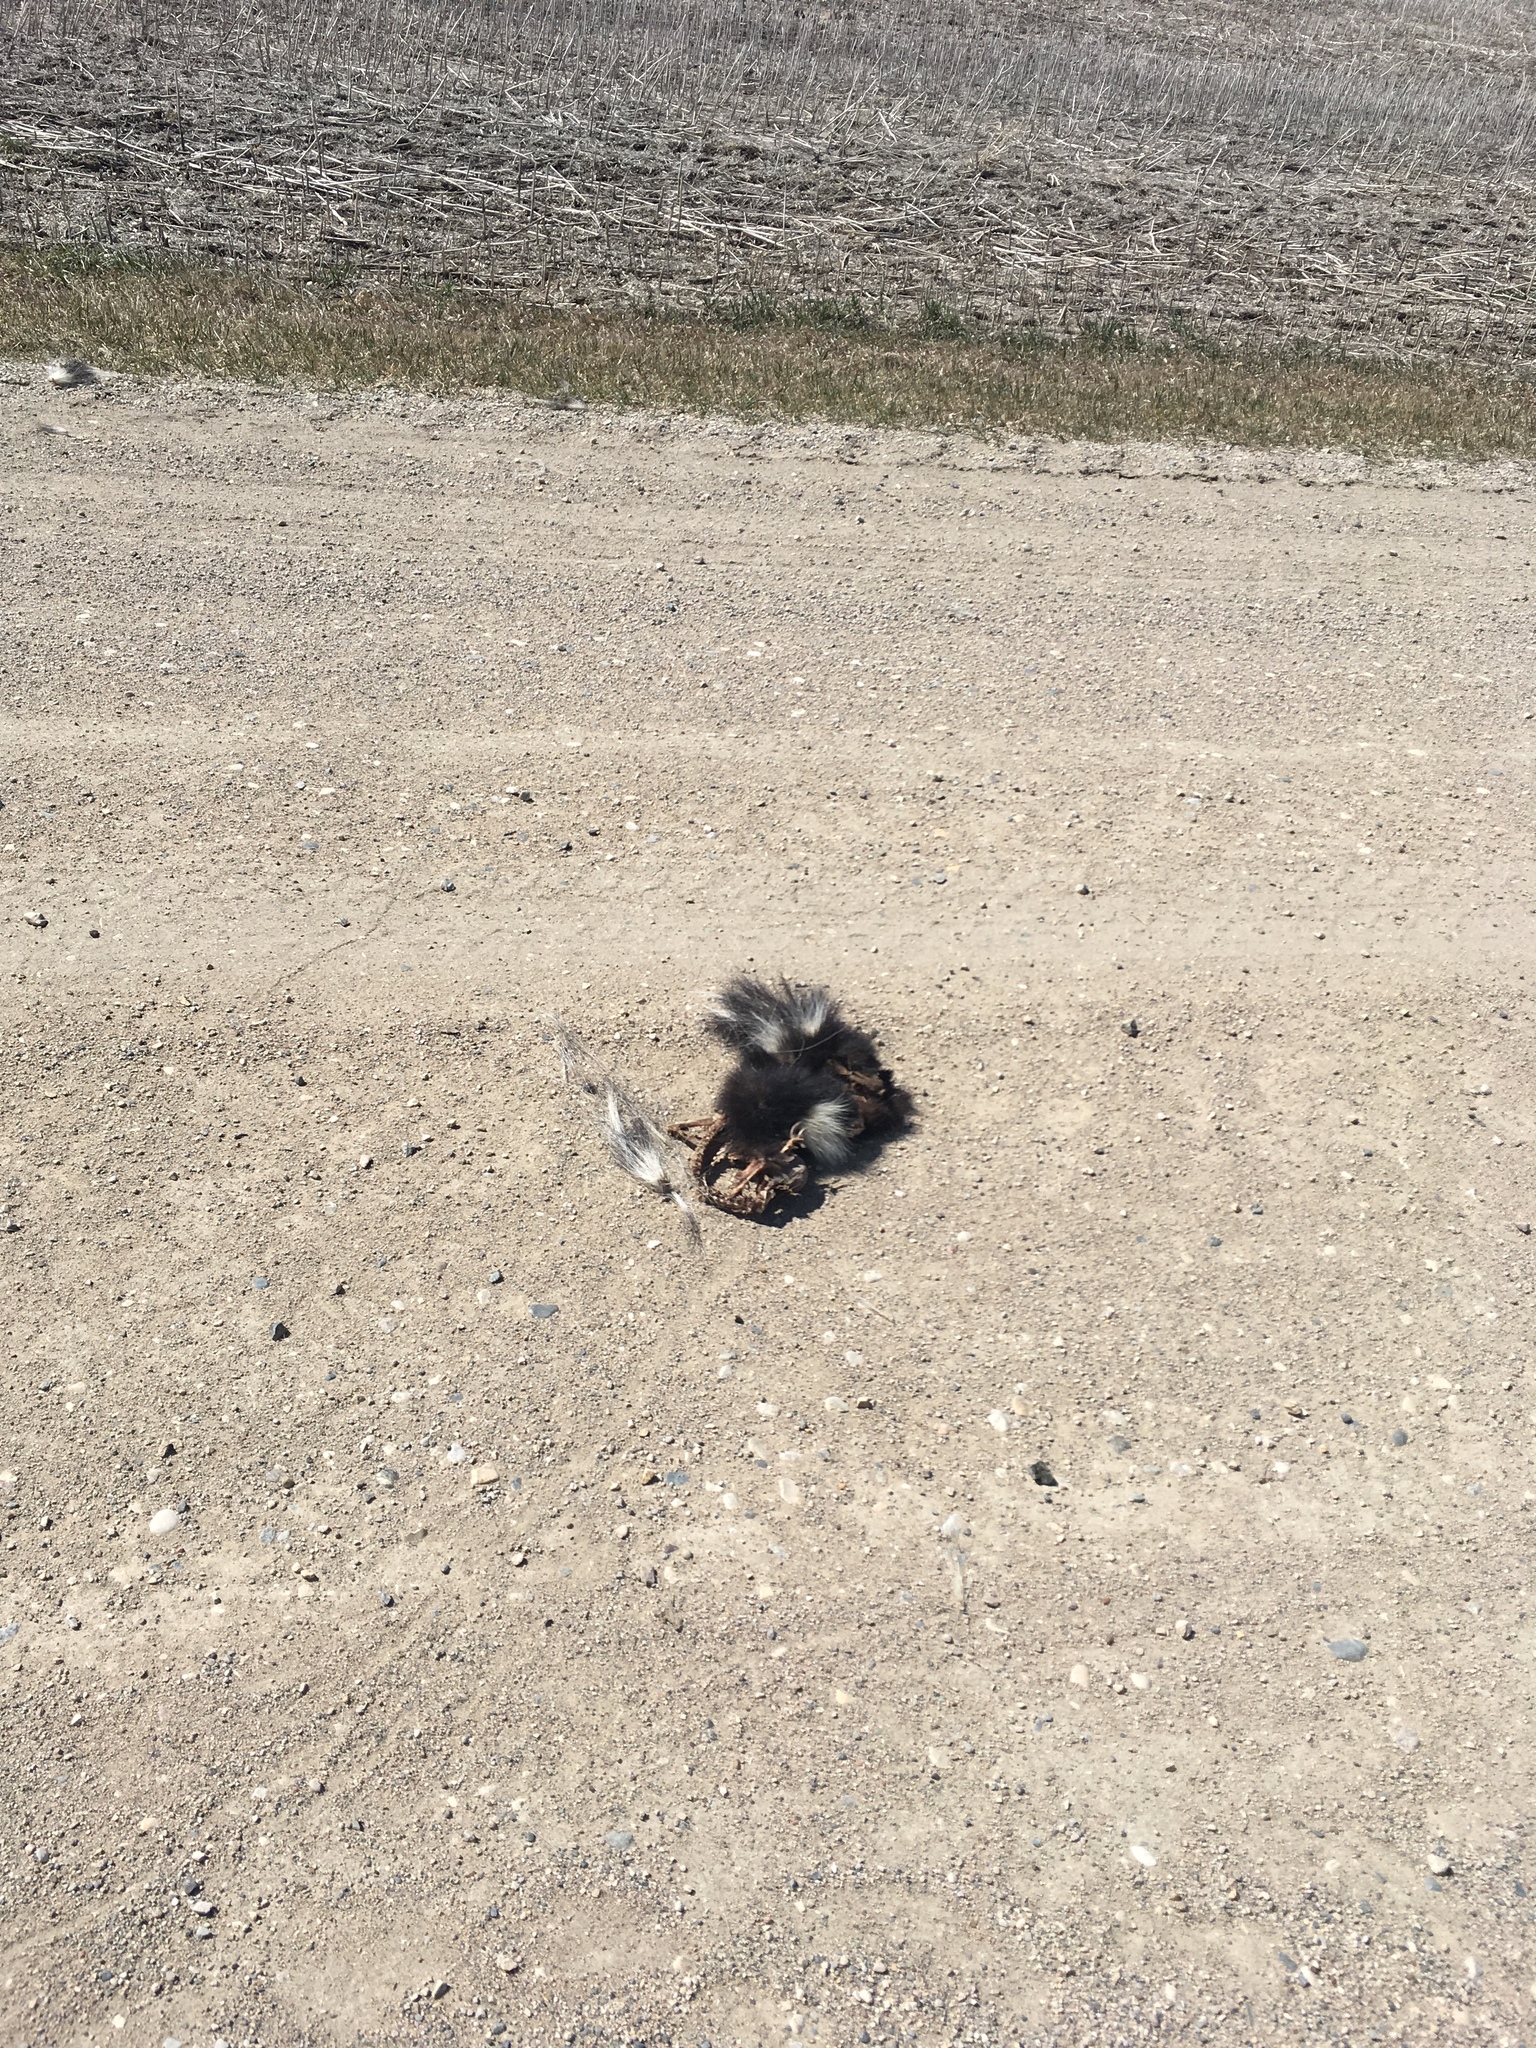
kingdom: Animalia
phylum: Chordata
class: Mammalia
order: Carnivora
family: Mephitidae
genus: Mephitis
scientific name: Mephitis mephitis
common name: Striped skunk
